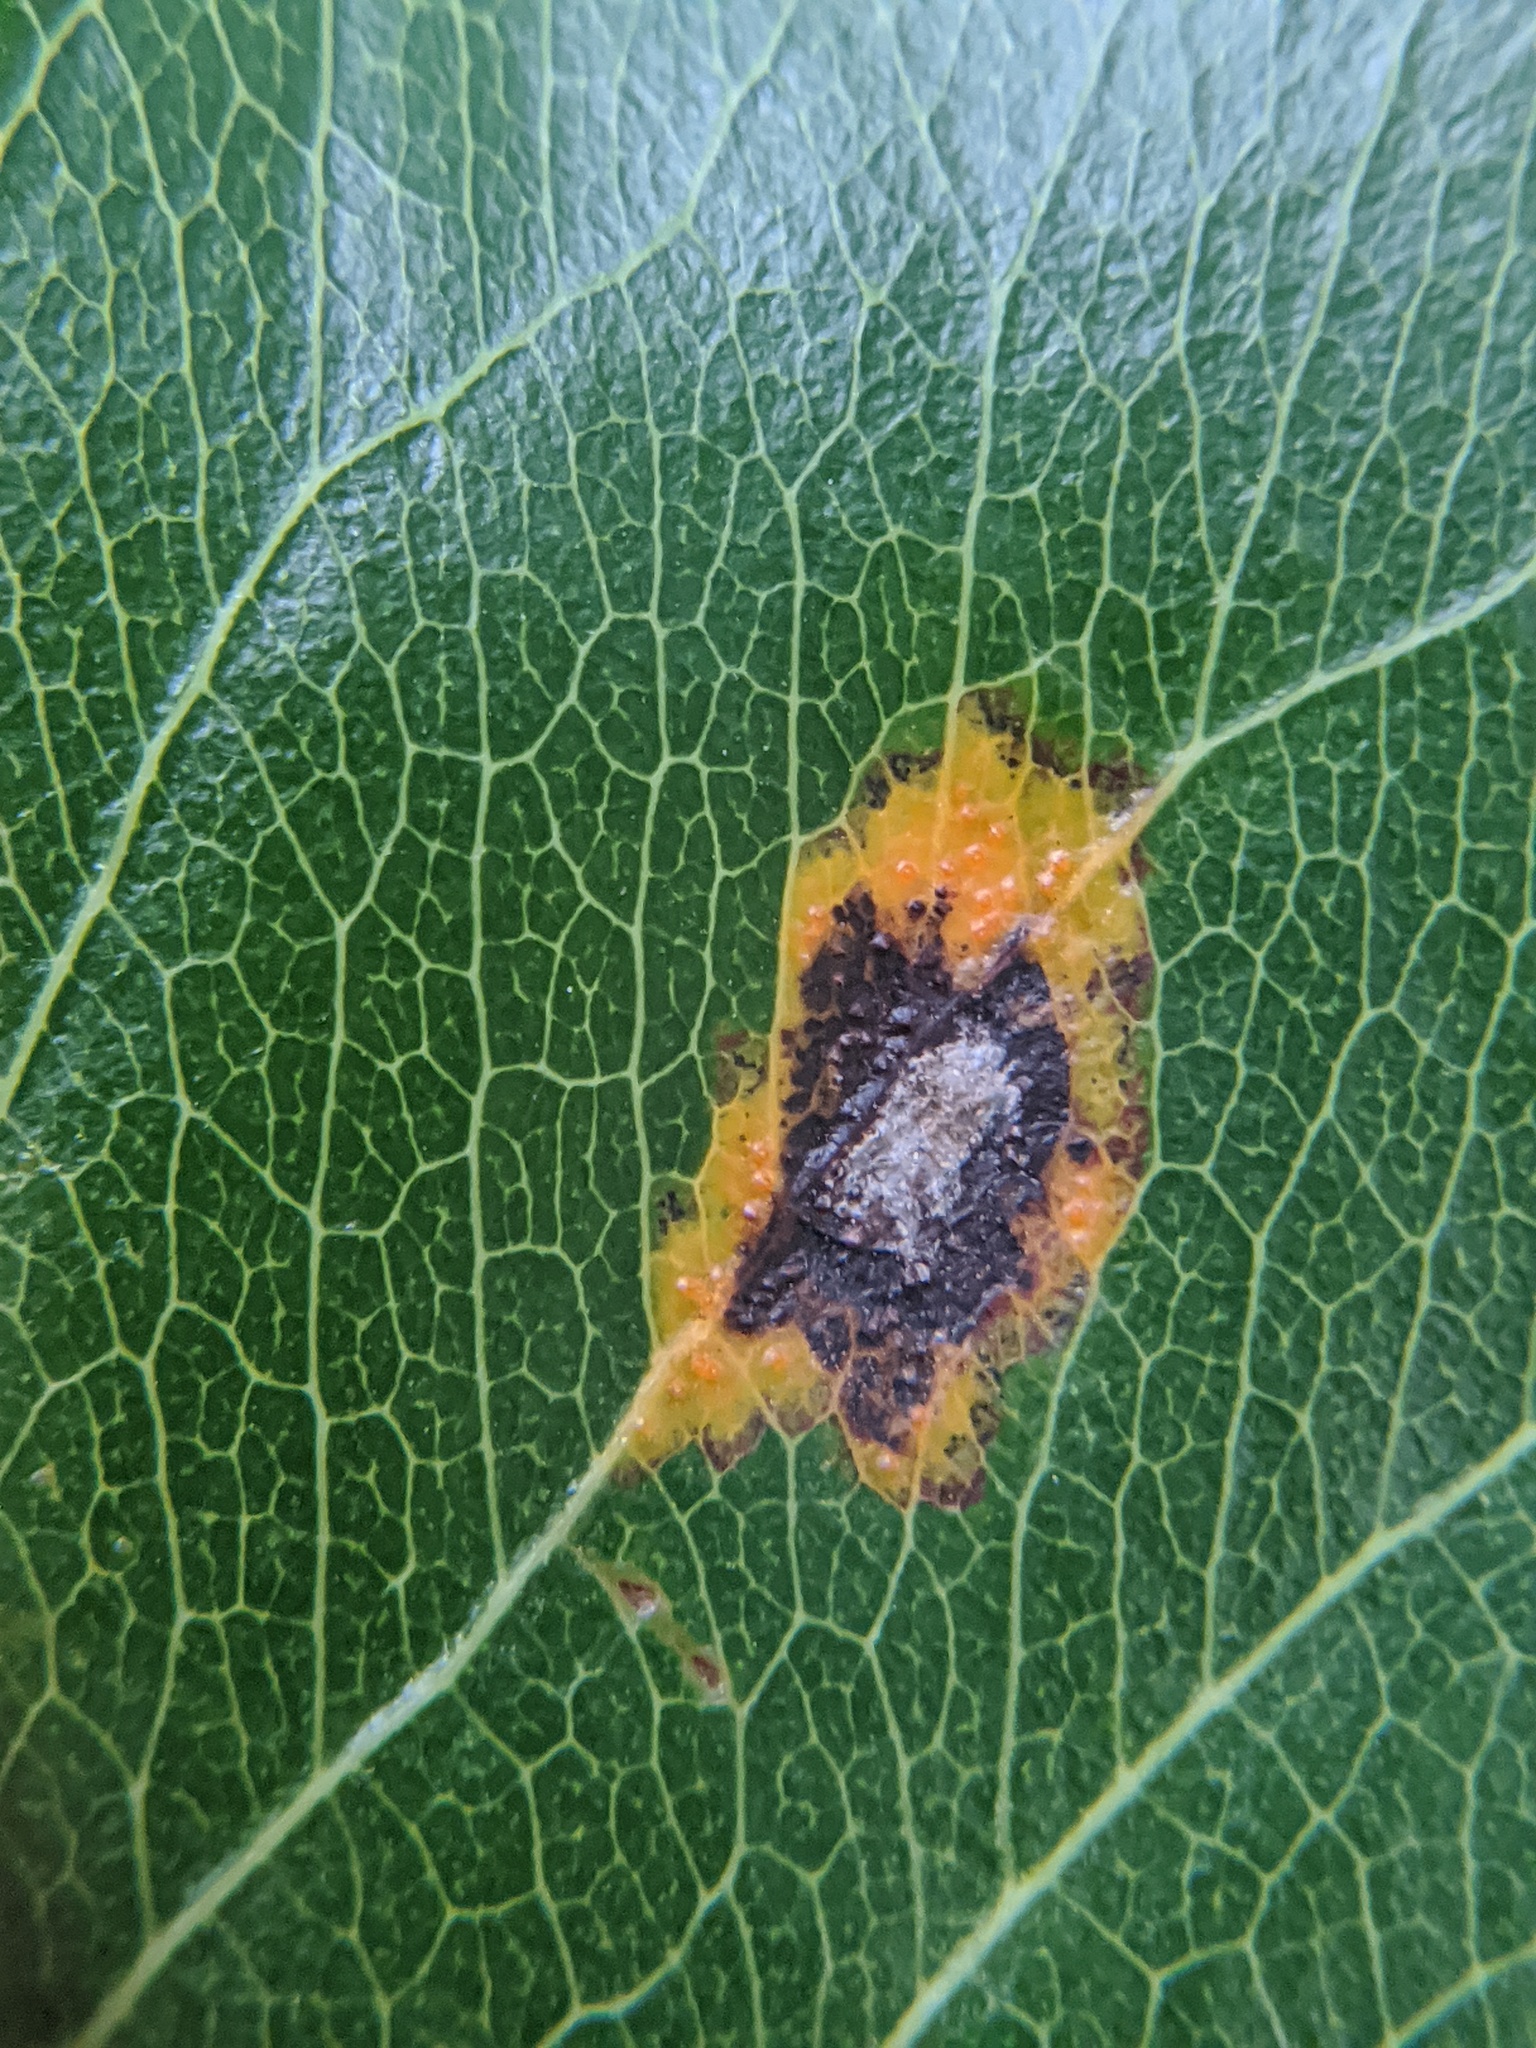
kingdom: Fungi
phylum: Basidiomycota
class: Pucciniomycetes
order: Pucciniales
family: Gymnosporangiaceae
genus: Gymnosporangium
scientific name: Gymnosporangium sabinae
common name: Pear trellis rust fungus
